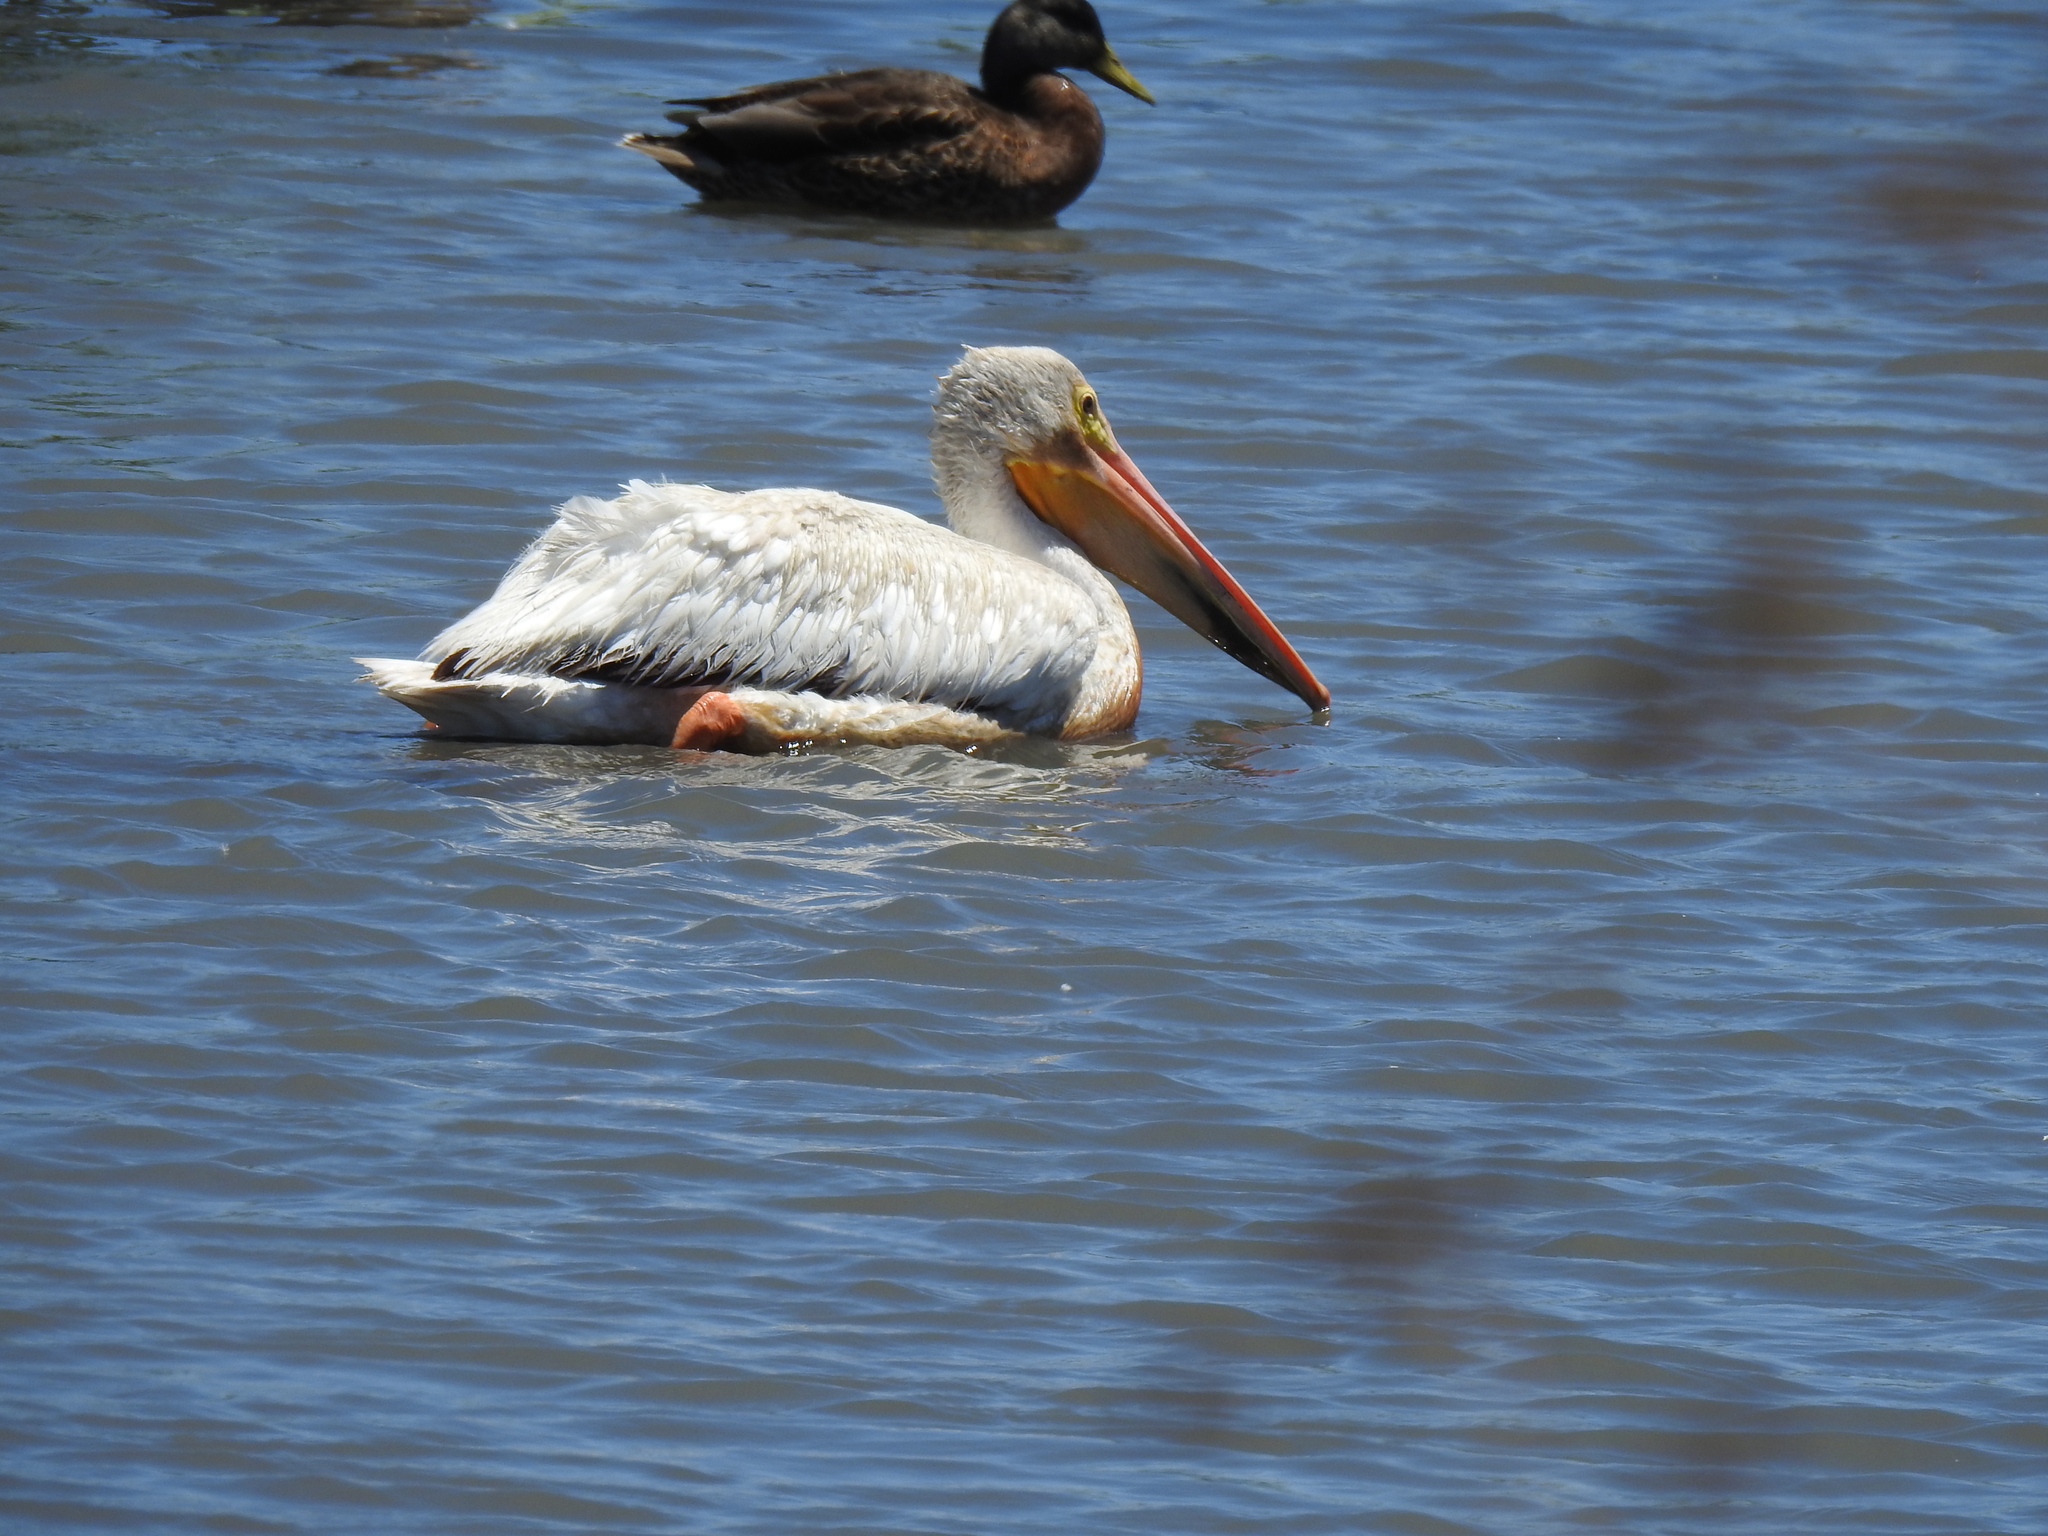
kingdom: Animalia
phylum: Chordata
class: Aves
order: Pelecaniformes
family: Pelecanidae
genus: Pelecanus
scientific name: Pelecanus erythrorhynchos
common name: American white pelican
